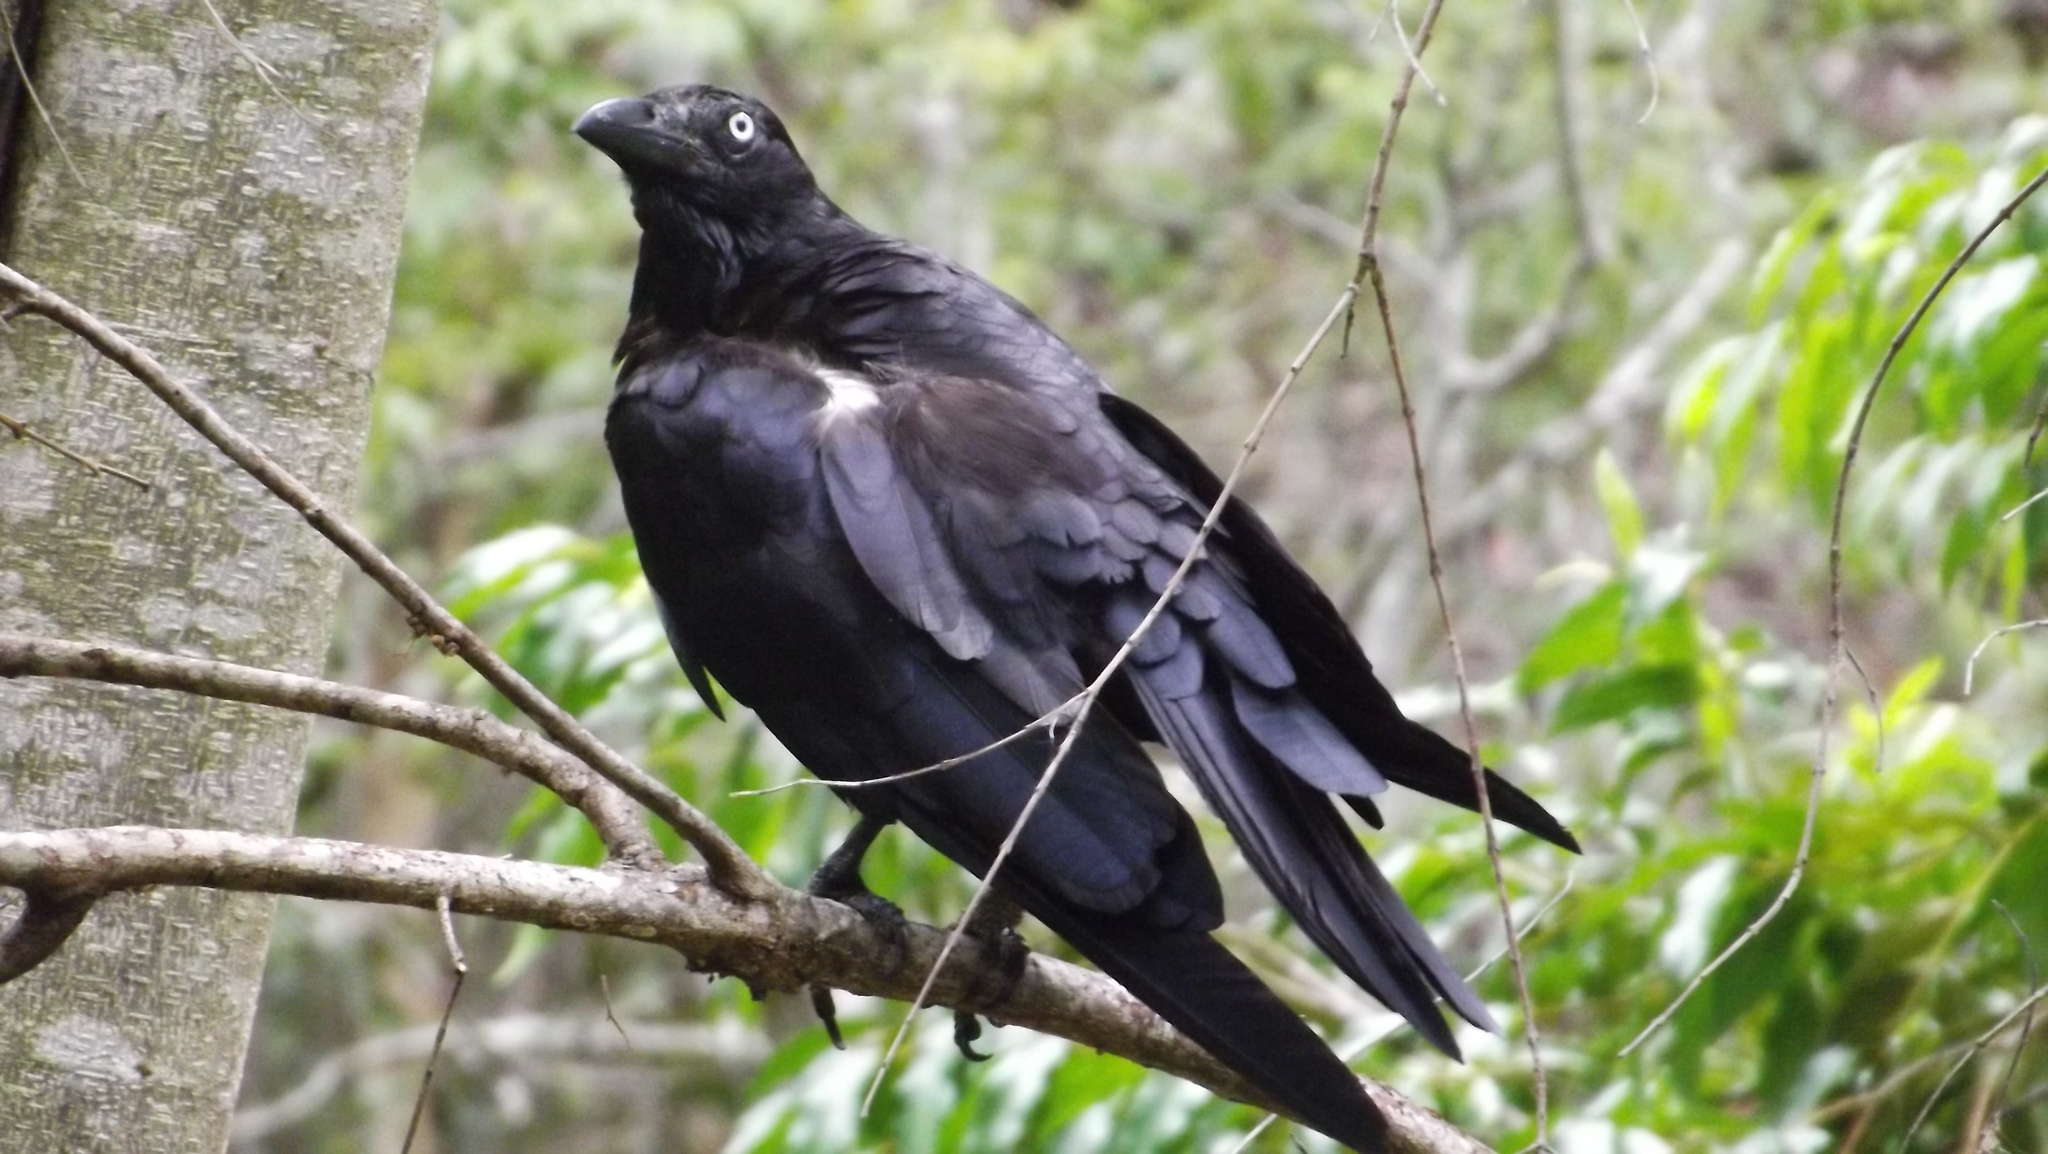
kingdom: Animalia
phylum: Chordata
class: Aves
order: Passeriformes
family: Corvidae
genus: Corvus
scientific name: Corvus orru
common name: Torresian crow
